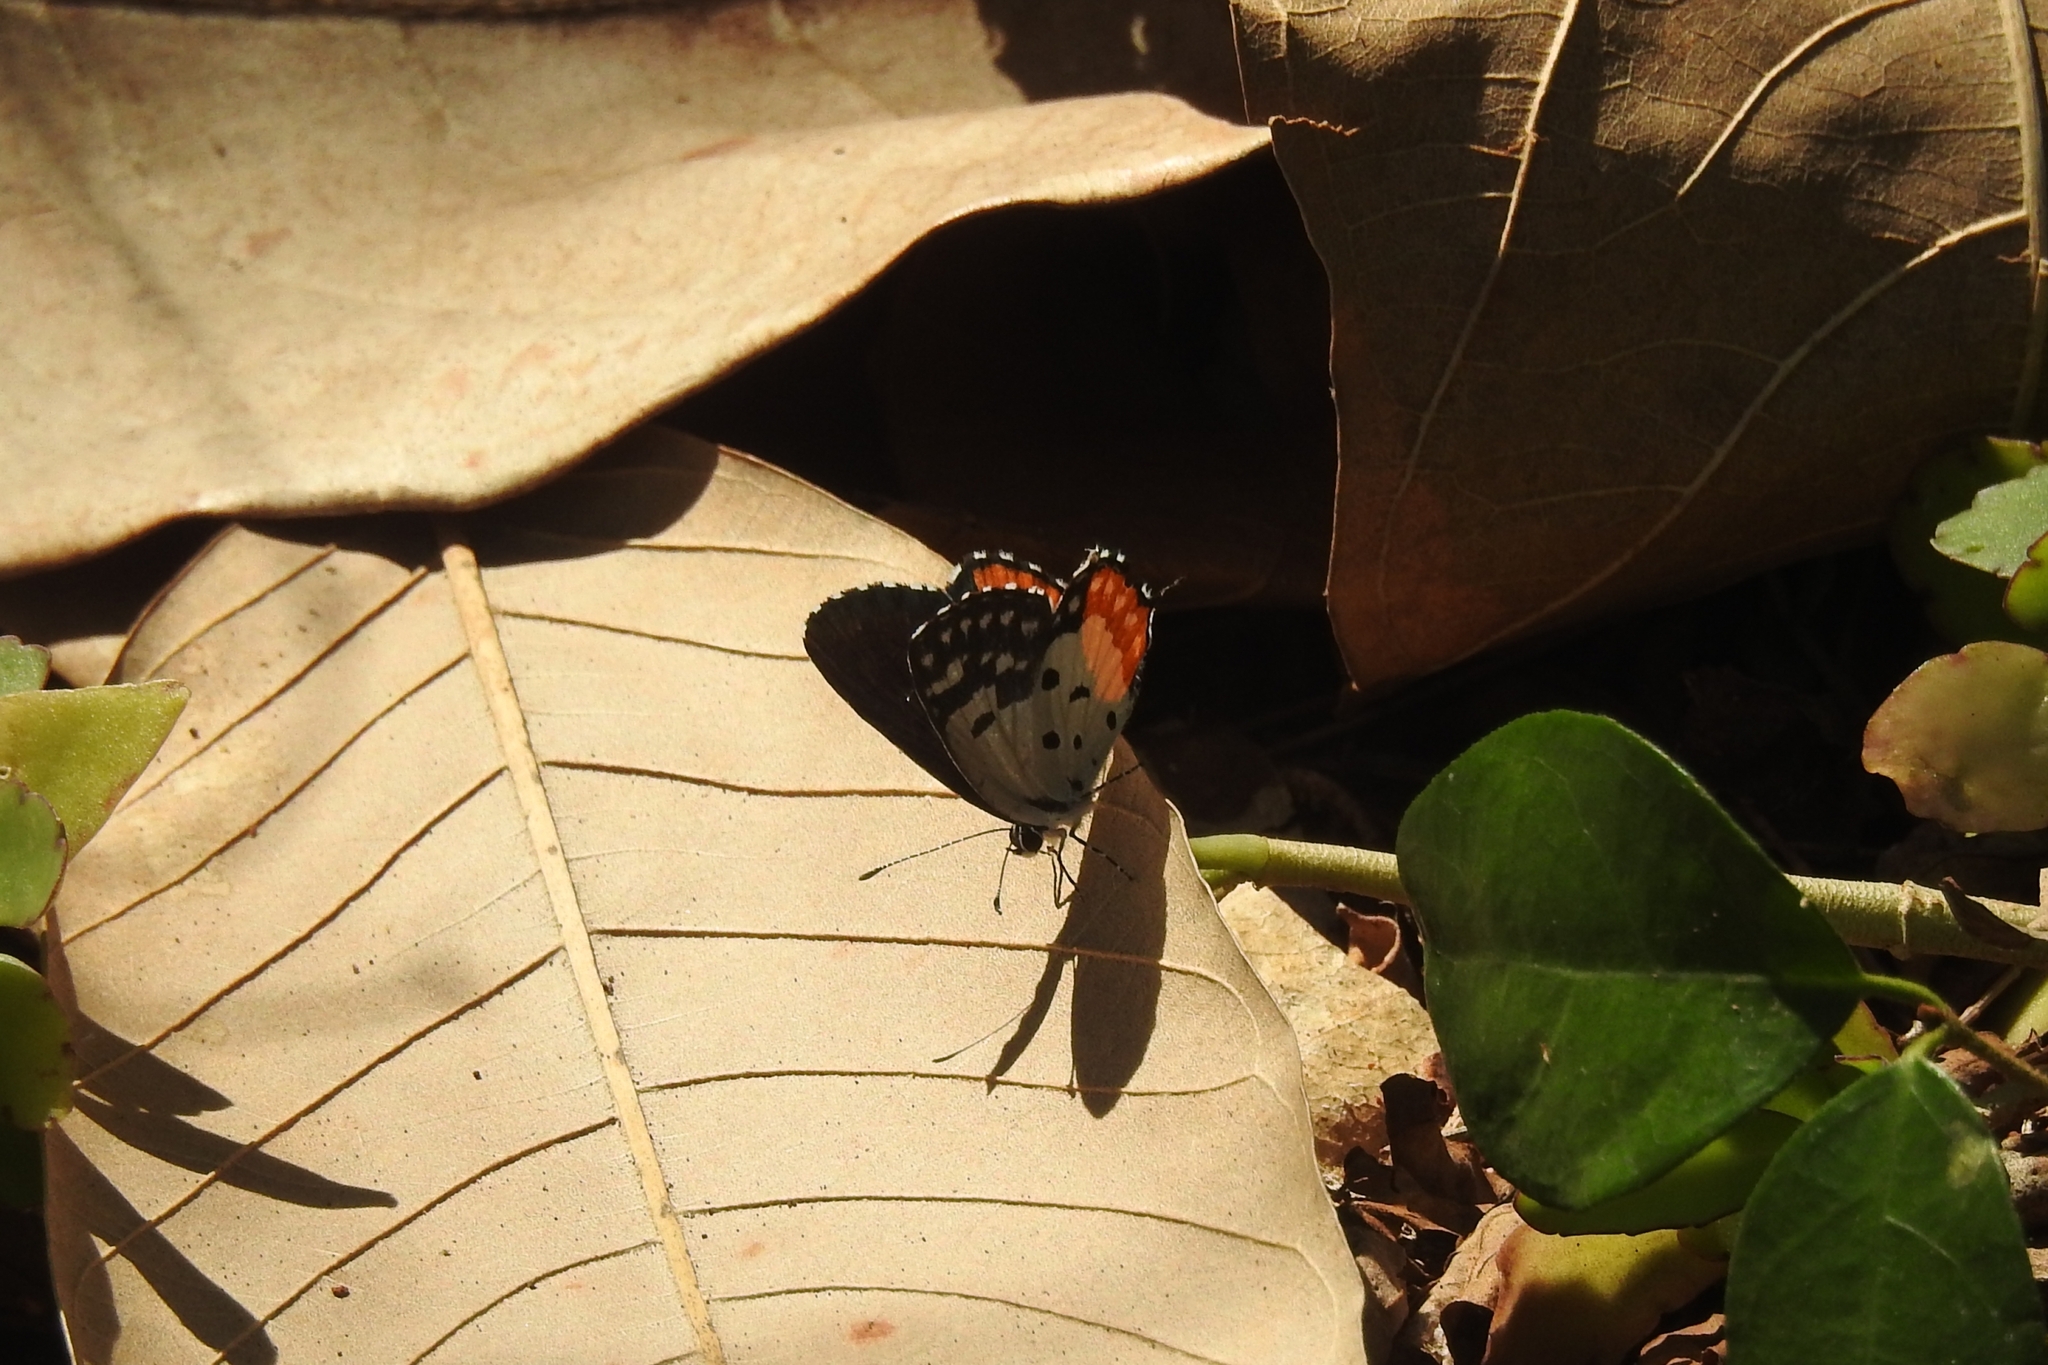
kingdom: Animalia
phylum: Arthropoda
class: Insecta
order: Lepidoptera
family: Lycaenidae
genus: Talicada
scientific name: Talicada nyseus
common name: Red pierrot
